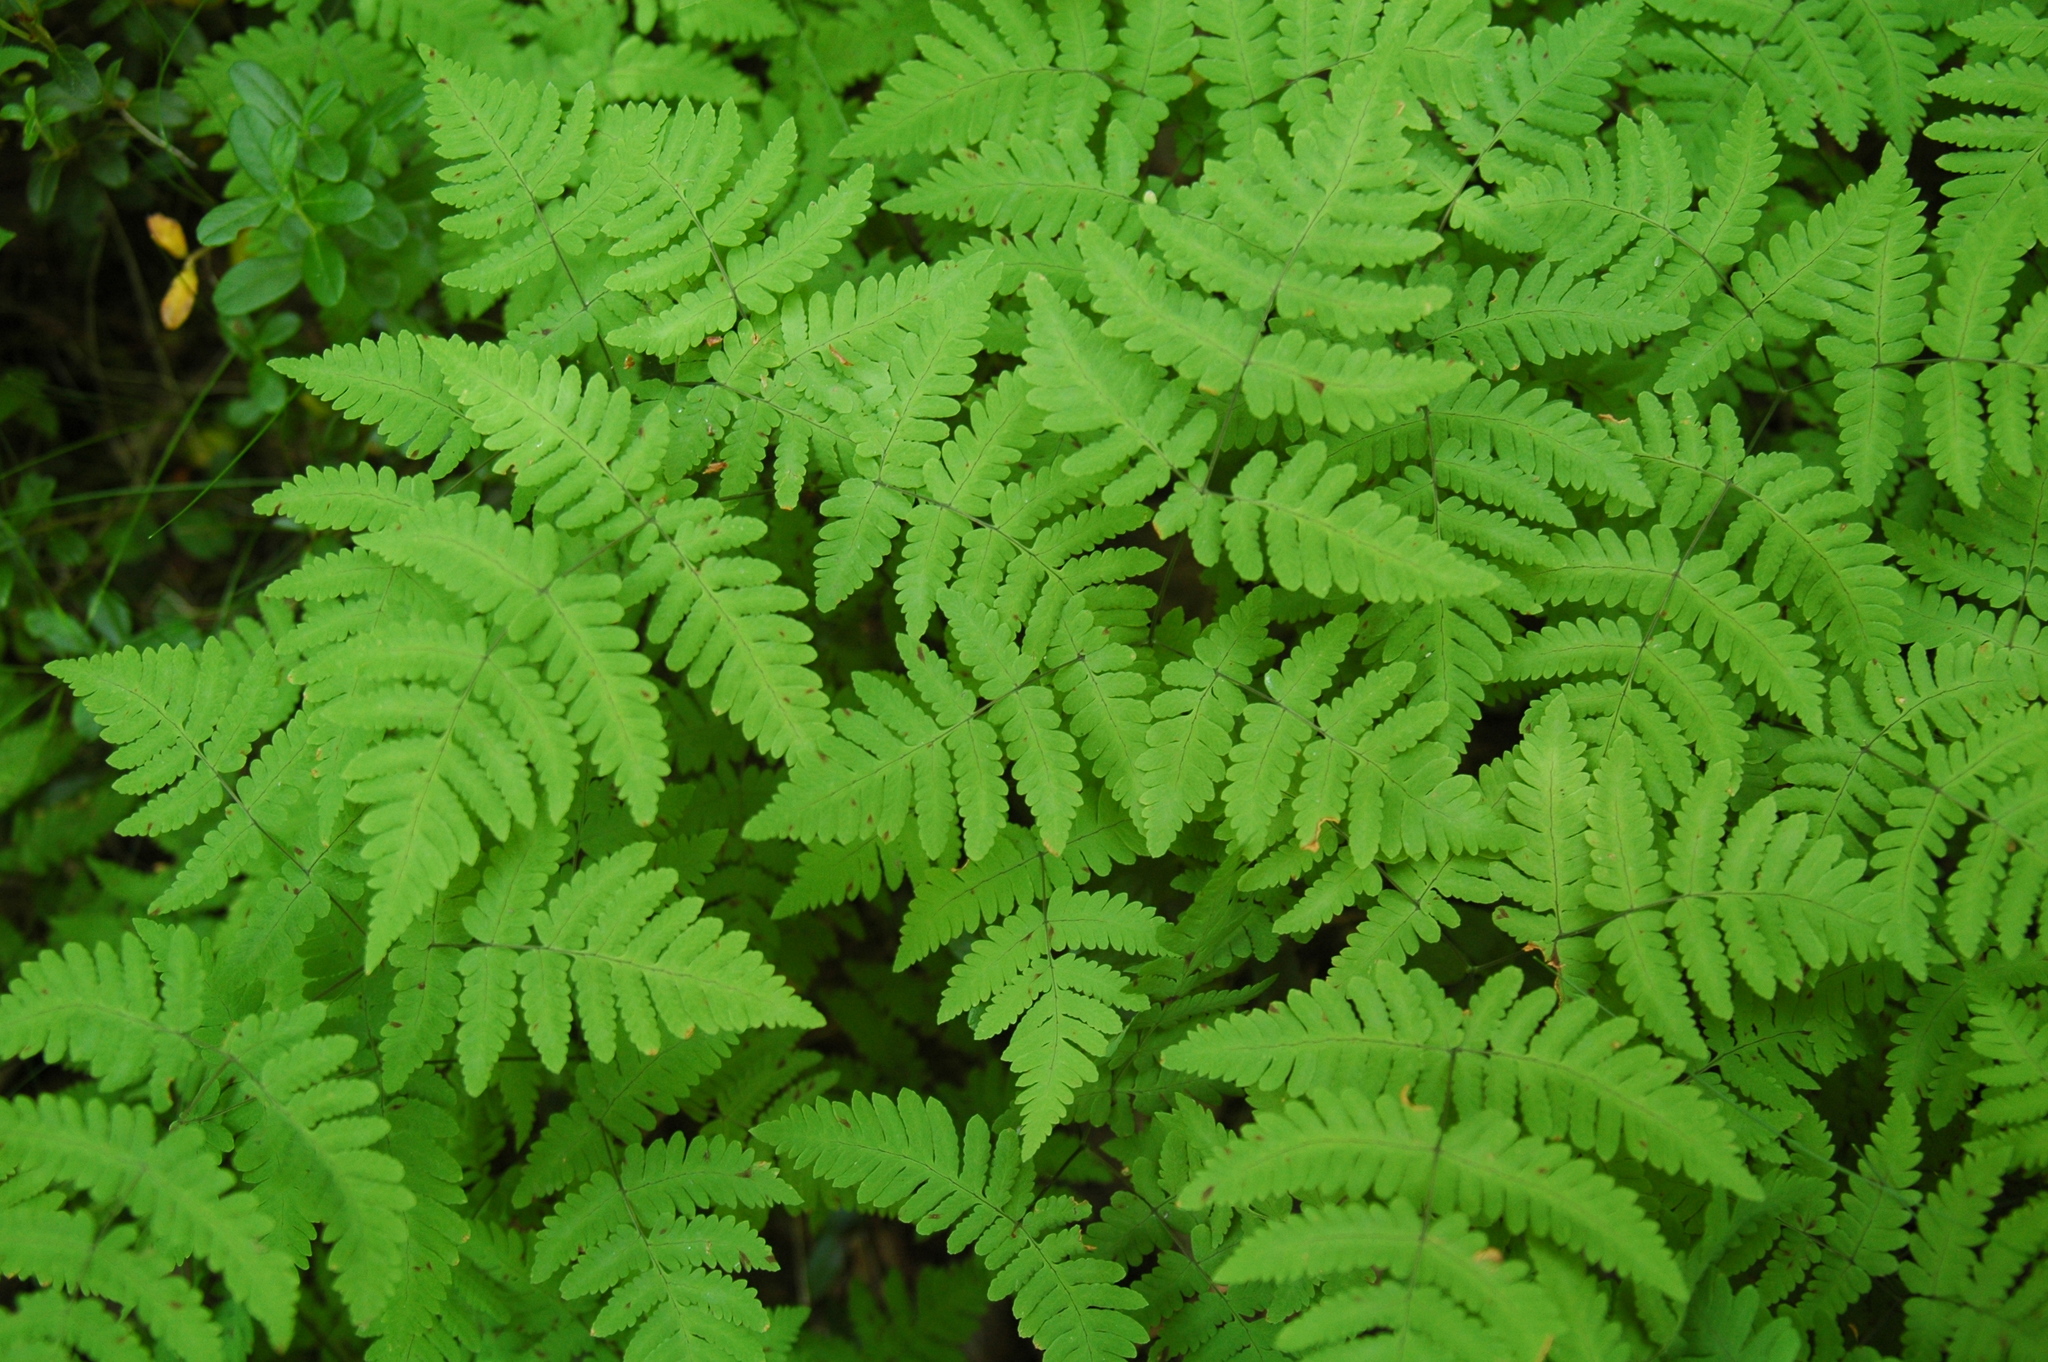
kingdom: Plantae
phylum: Tracheophyta
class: Polypodiopsida
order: Polypodiales
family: Cystopteridaceae
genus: Gymnocarpium
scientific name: Gymnocarpium dryopteris
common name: Oak fern
